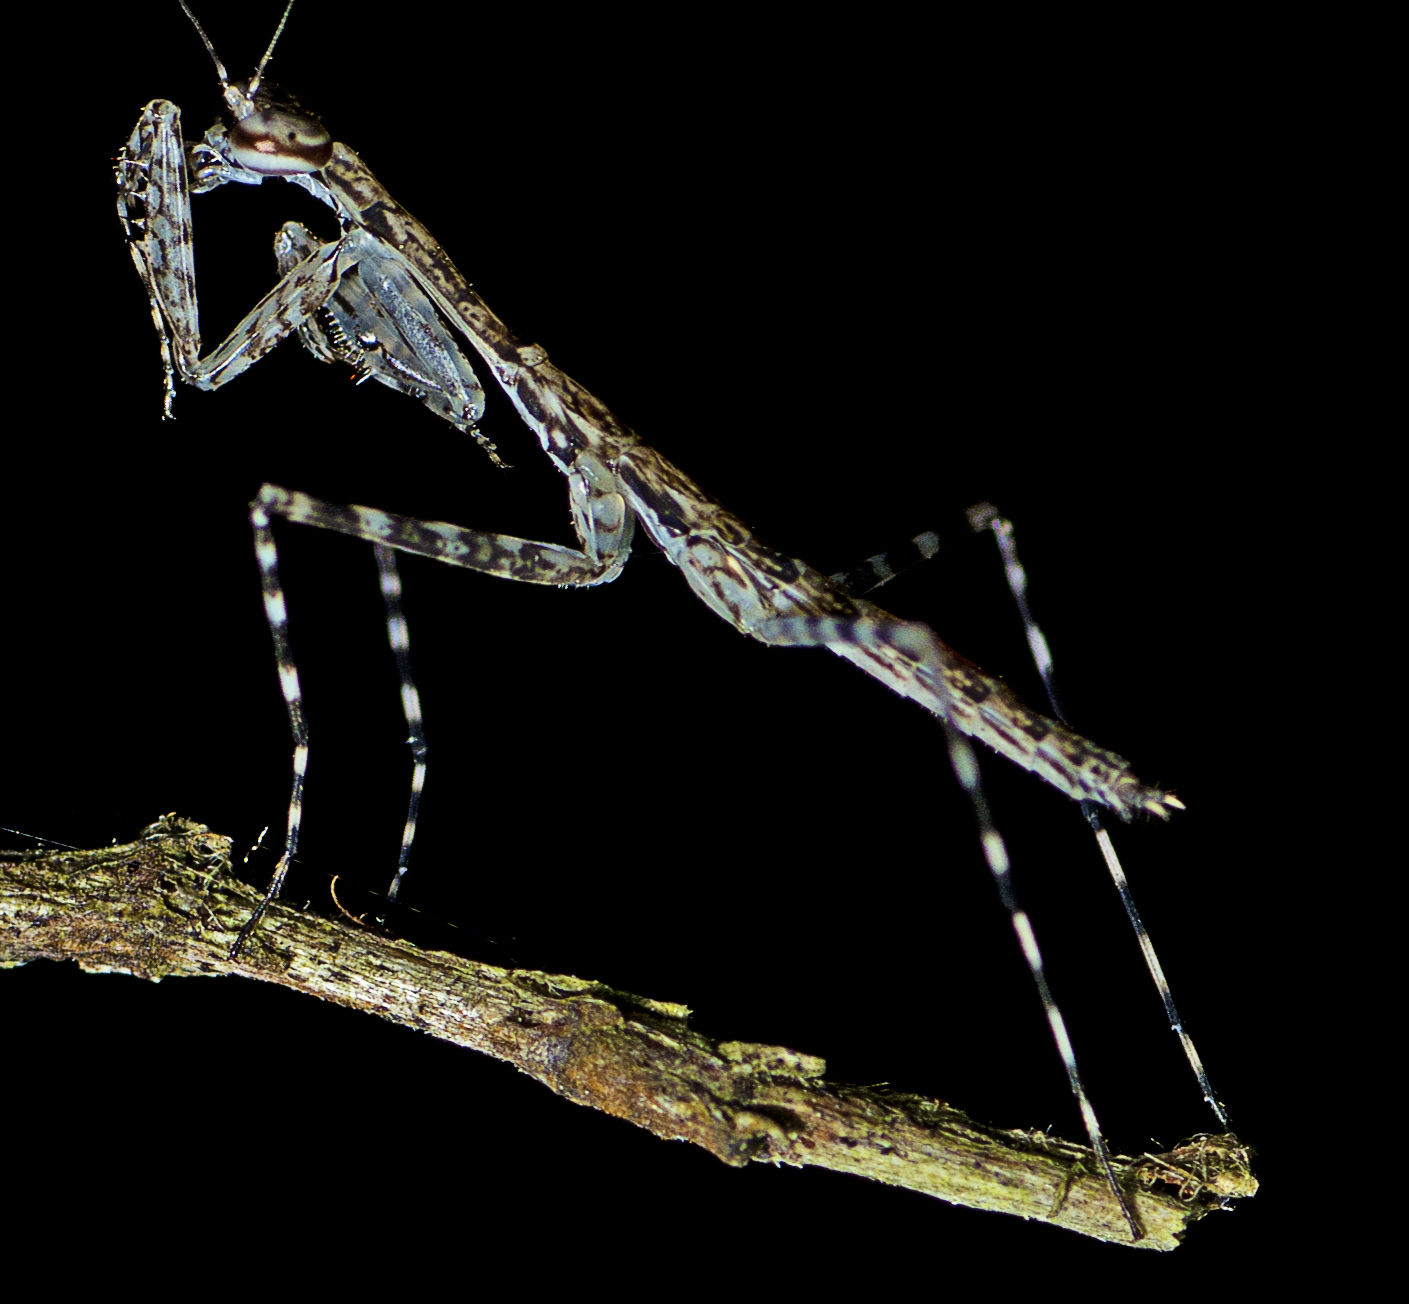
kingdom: Animalia
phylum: Arthropoda
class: Insecta
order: Mantodea
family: Nanomantidae
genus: Ciulfina
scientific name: Ciulfina baldersoni
